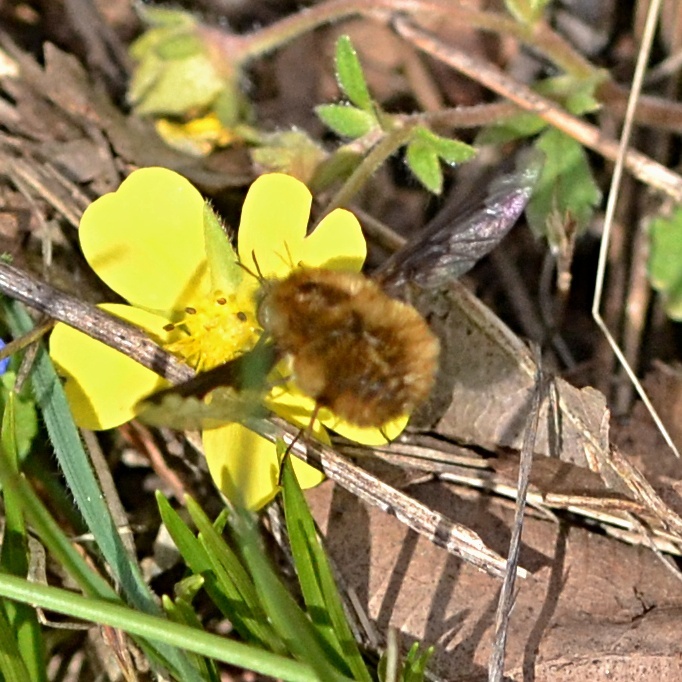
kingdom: Animalia
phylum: Arthropoda
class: Insecta
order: Diptera
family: Bombyliidae
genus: Bombylius
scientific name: Bombylius major
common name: Bee fly
